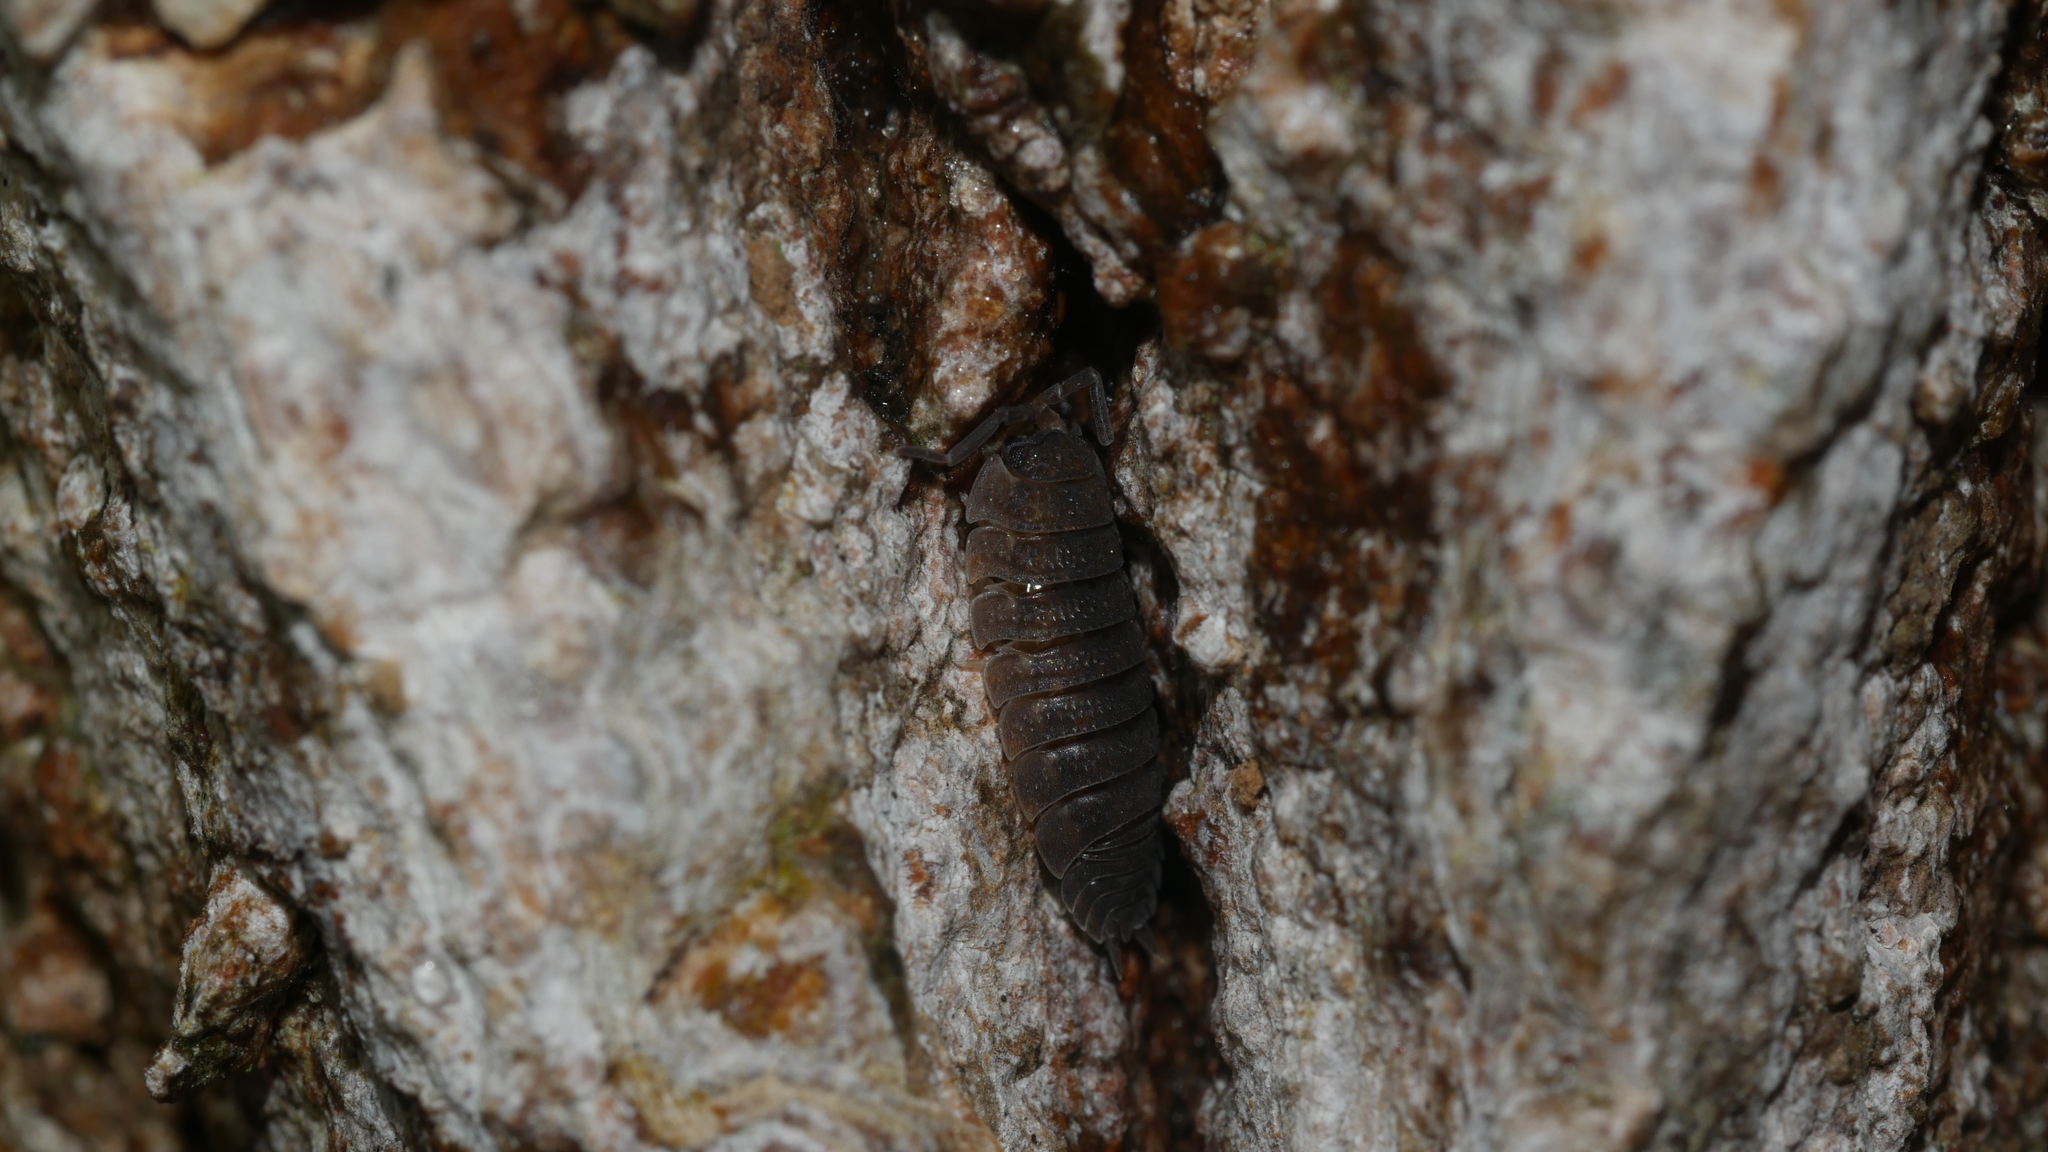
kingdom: Animalia
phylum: Arthropoda
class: Malacostraca
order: Isopoda
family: Porcellionidae
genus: Porcellio
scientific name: Porcellio scaber
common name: Common rough woodlouse
